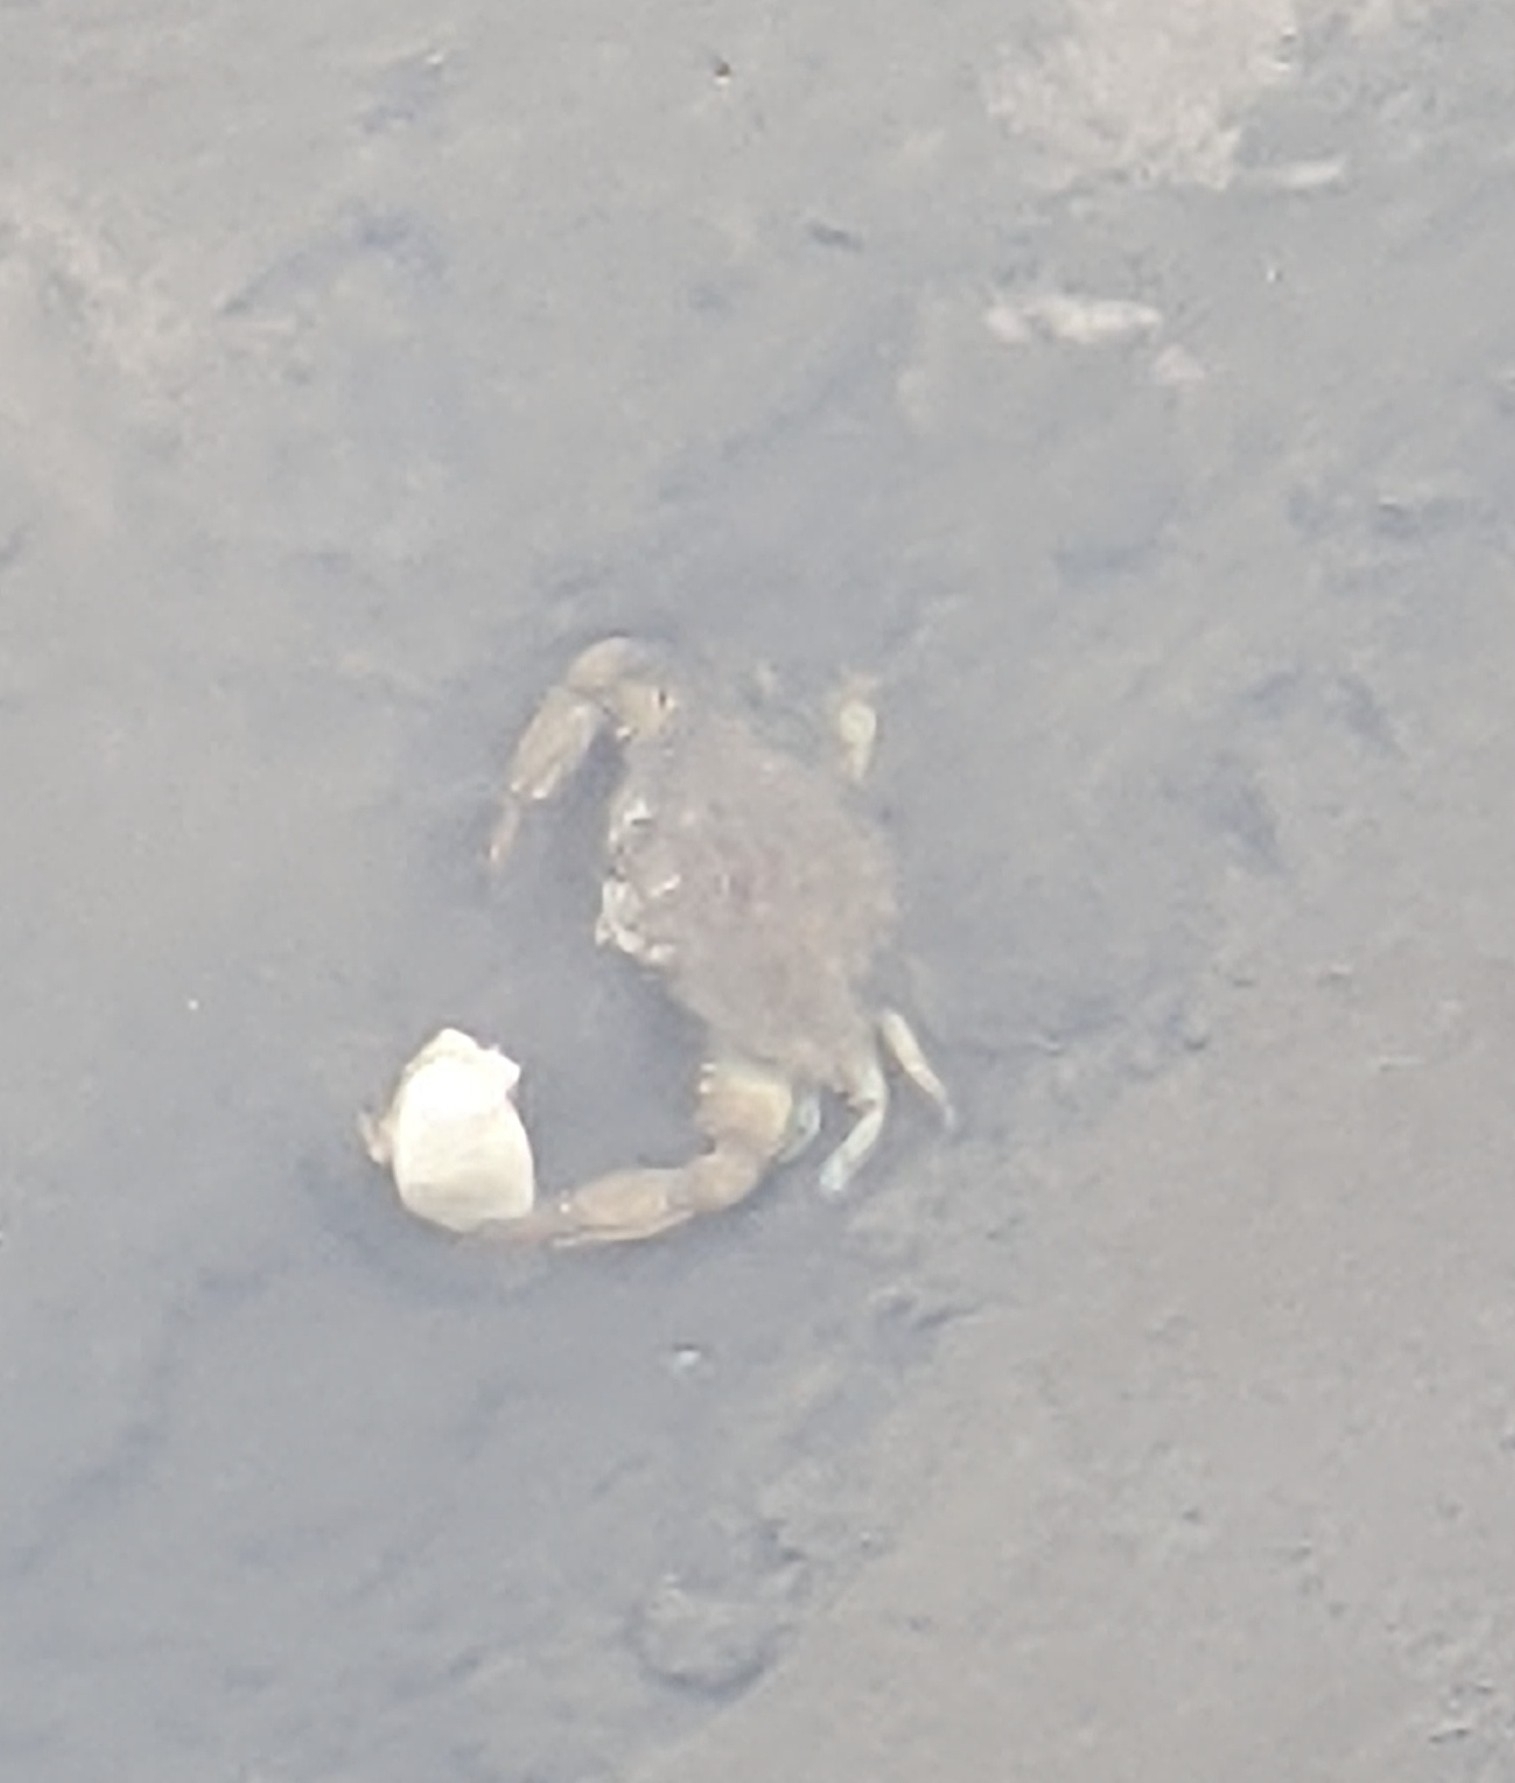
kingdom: Animalia
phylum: Arthropoda
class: Malacostraca
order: Decapoda
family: Portunidae
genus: Callinectes
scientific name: Callinectes sapidus
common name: Blue crab
